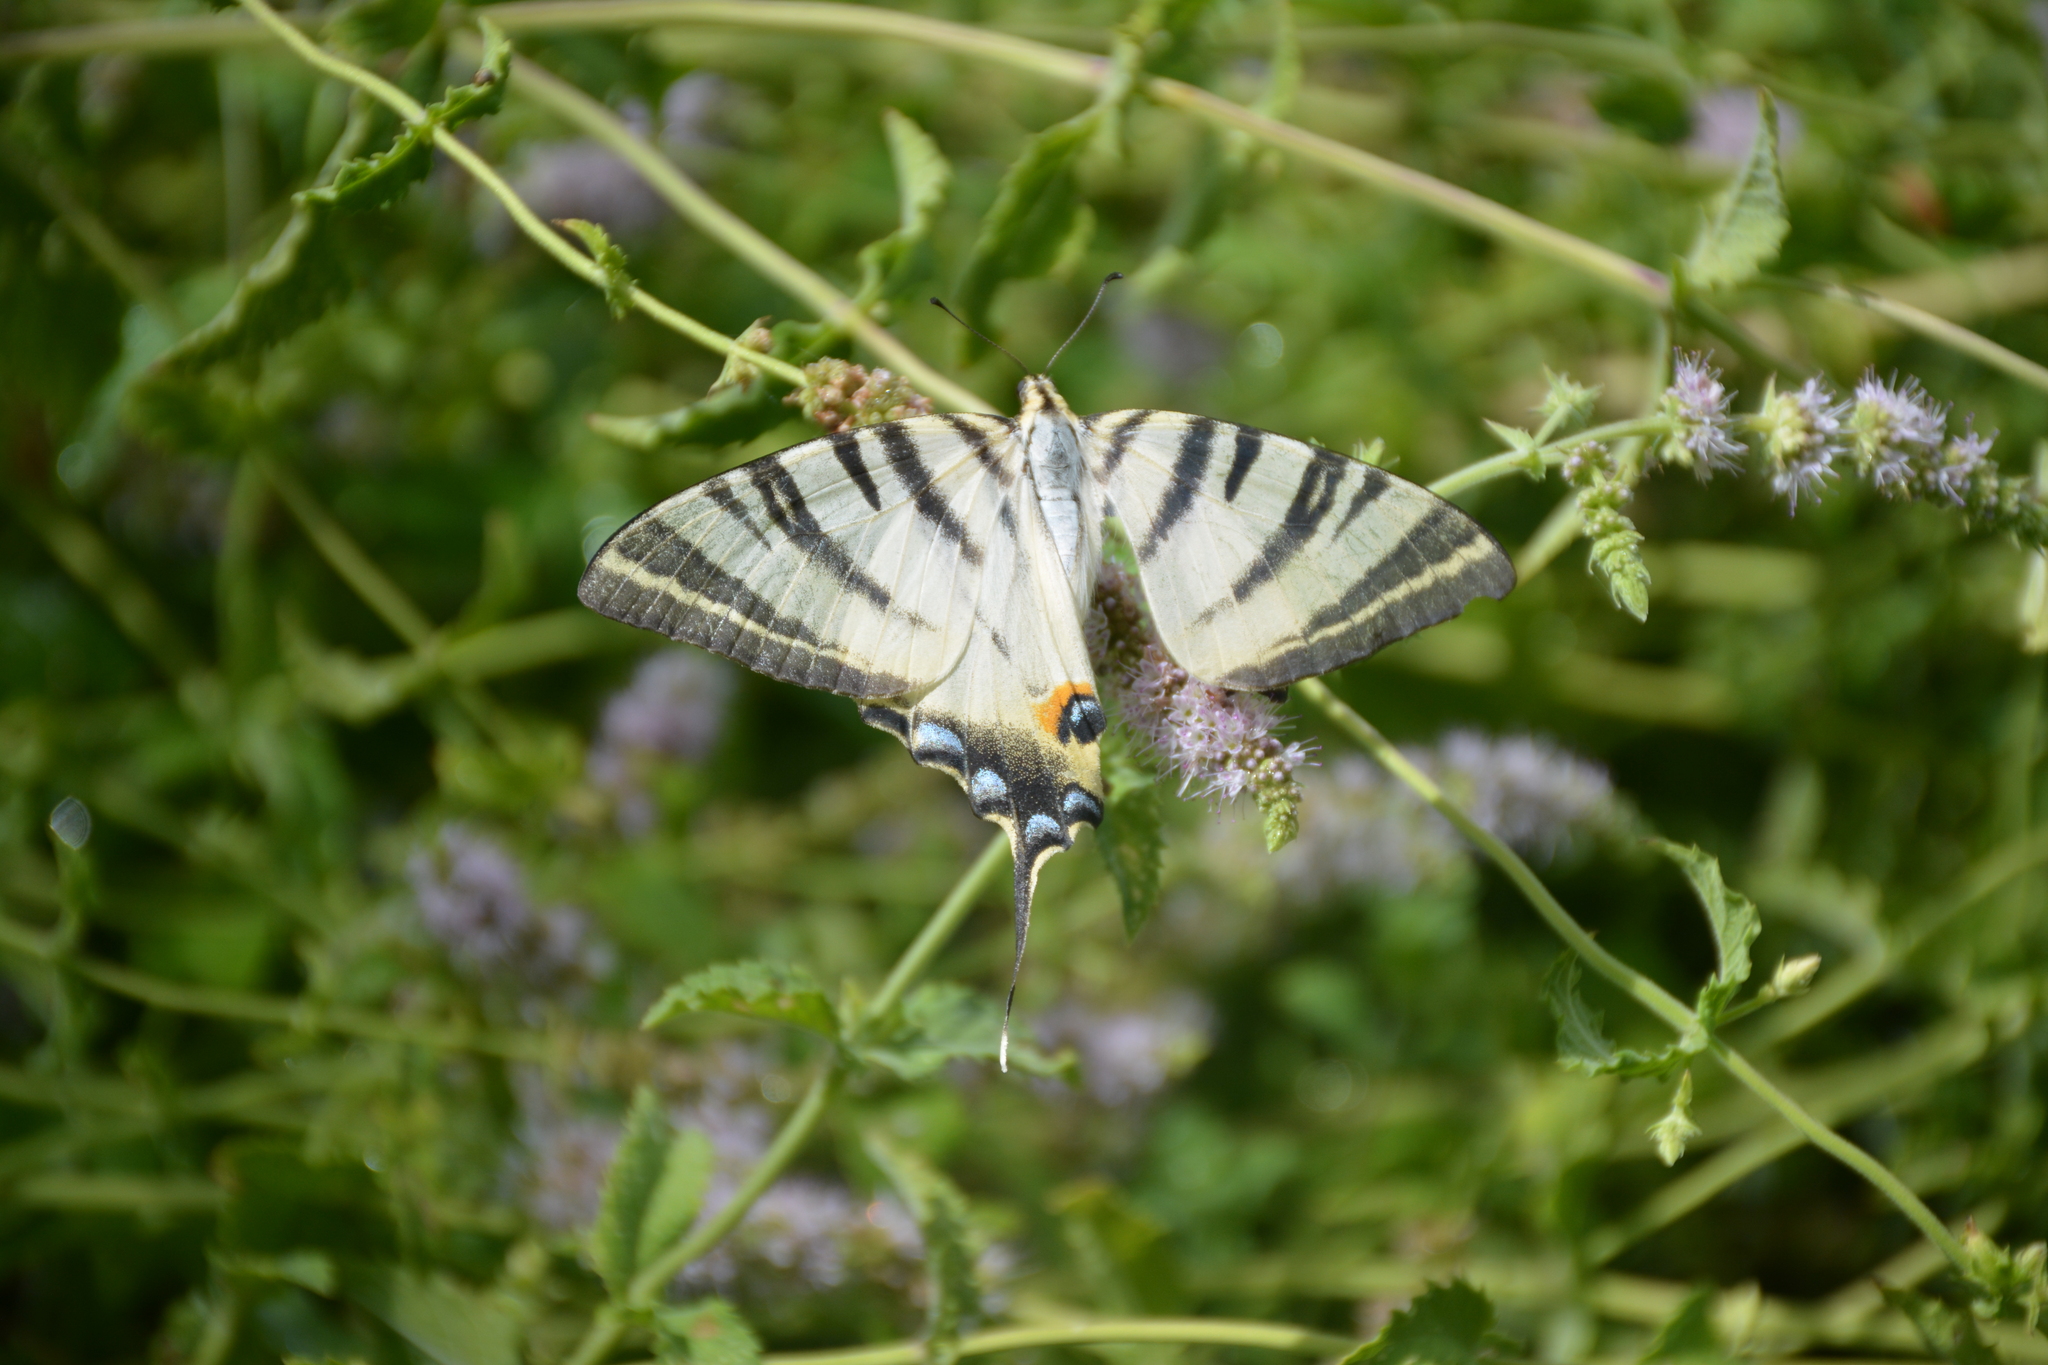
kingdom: Animalia
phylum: Arthropoda
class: Insecta
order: Lepidoptera
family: Papilionidae
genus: Iphiclides
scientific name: Iphiclides podalirius
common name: Scarce swallowtail
